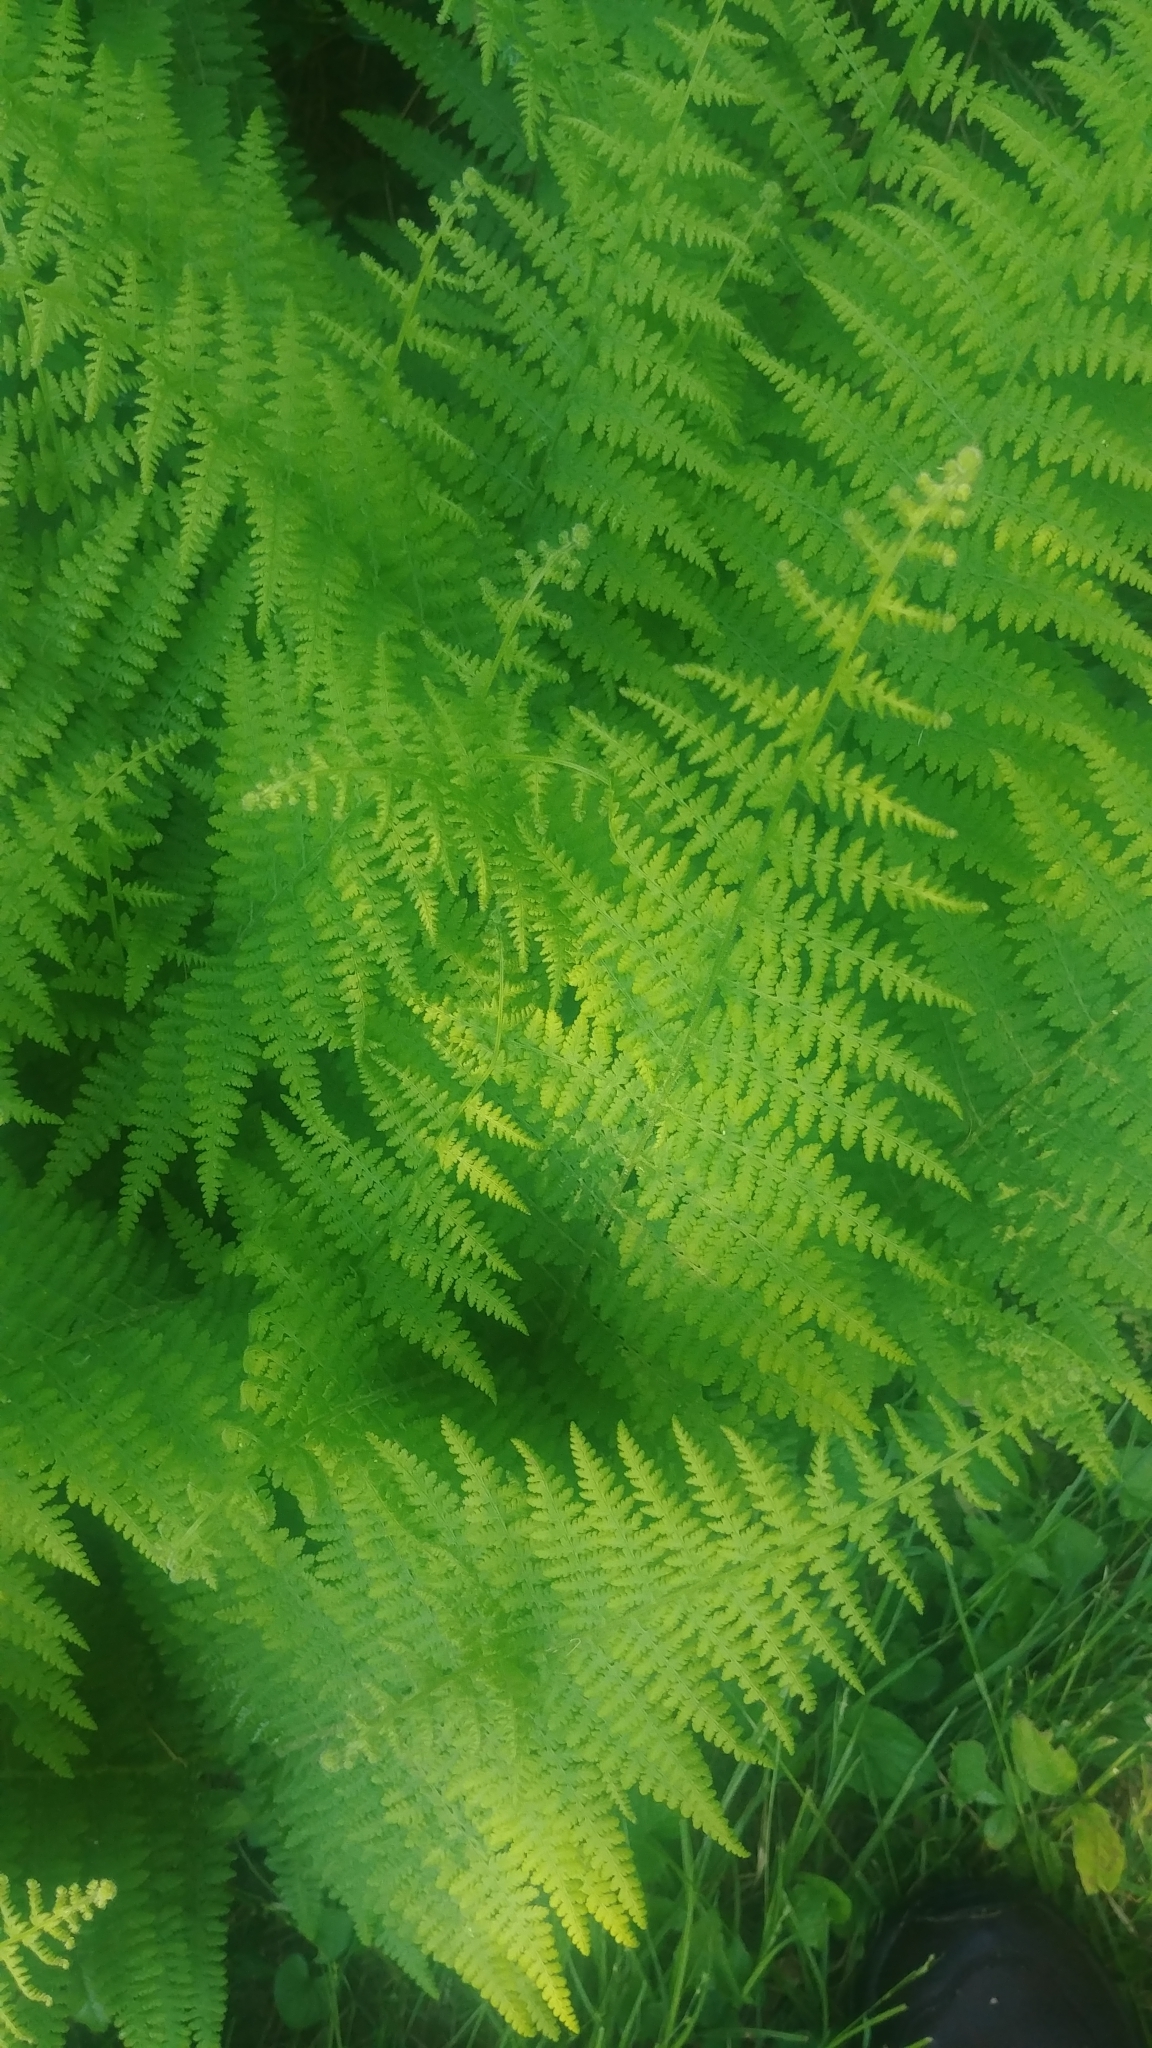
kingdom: Plantae
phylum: Tracheophyta
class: Polypodiopsida
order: Polypodiales
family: Dennstaedtiaceae
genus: Sitobolium
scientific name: Sitobolium punctilobum
